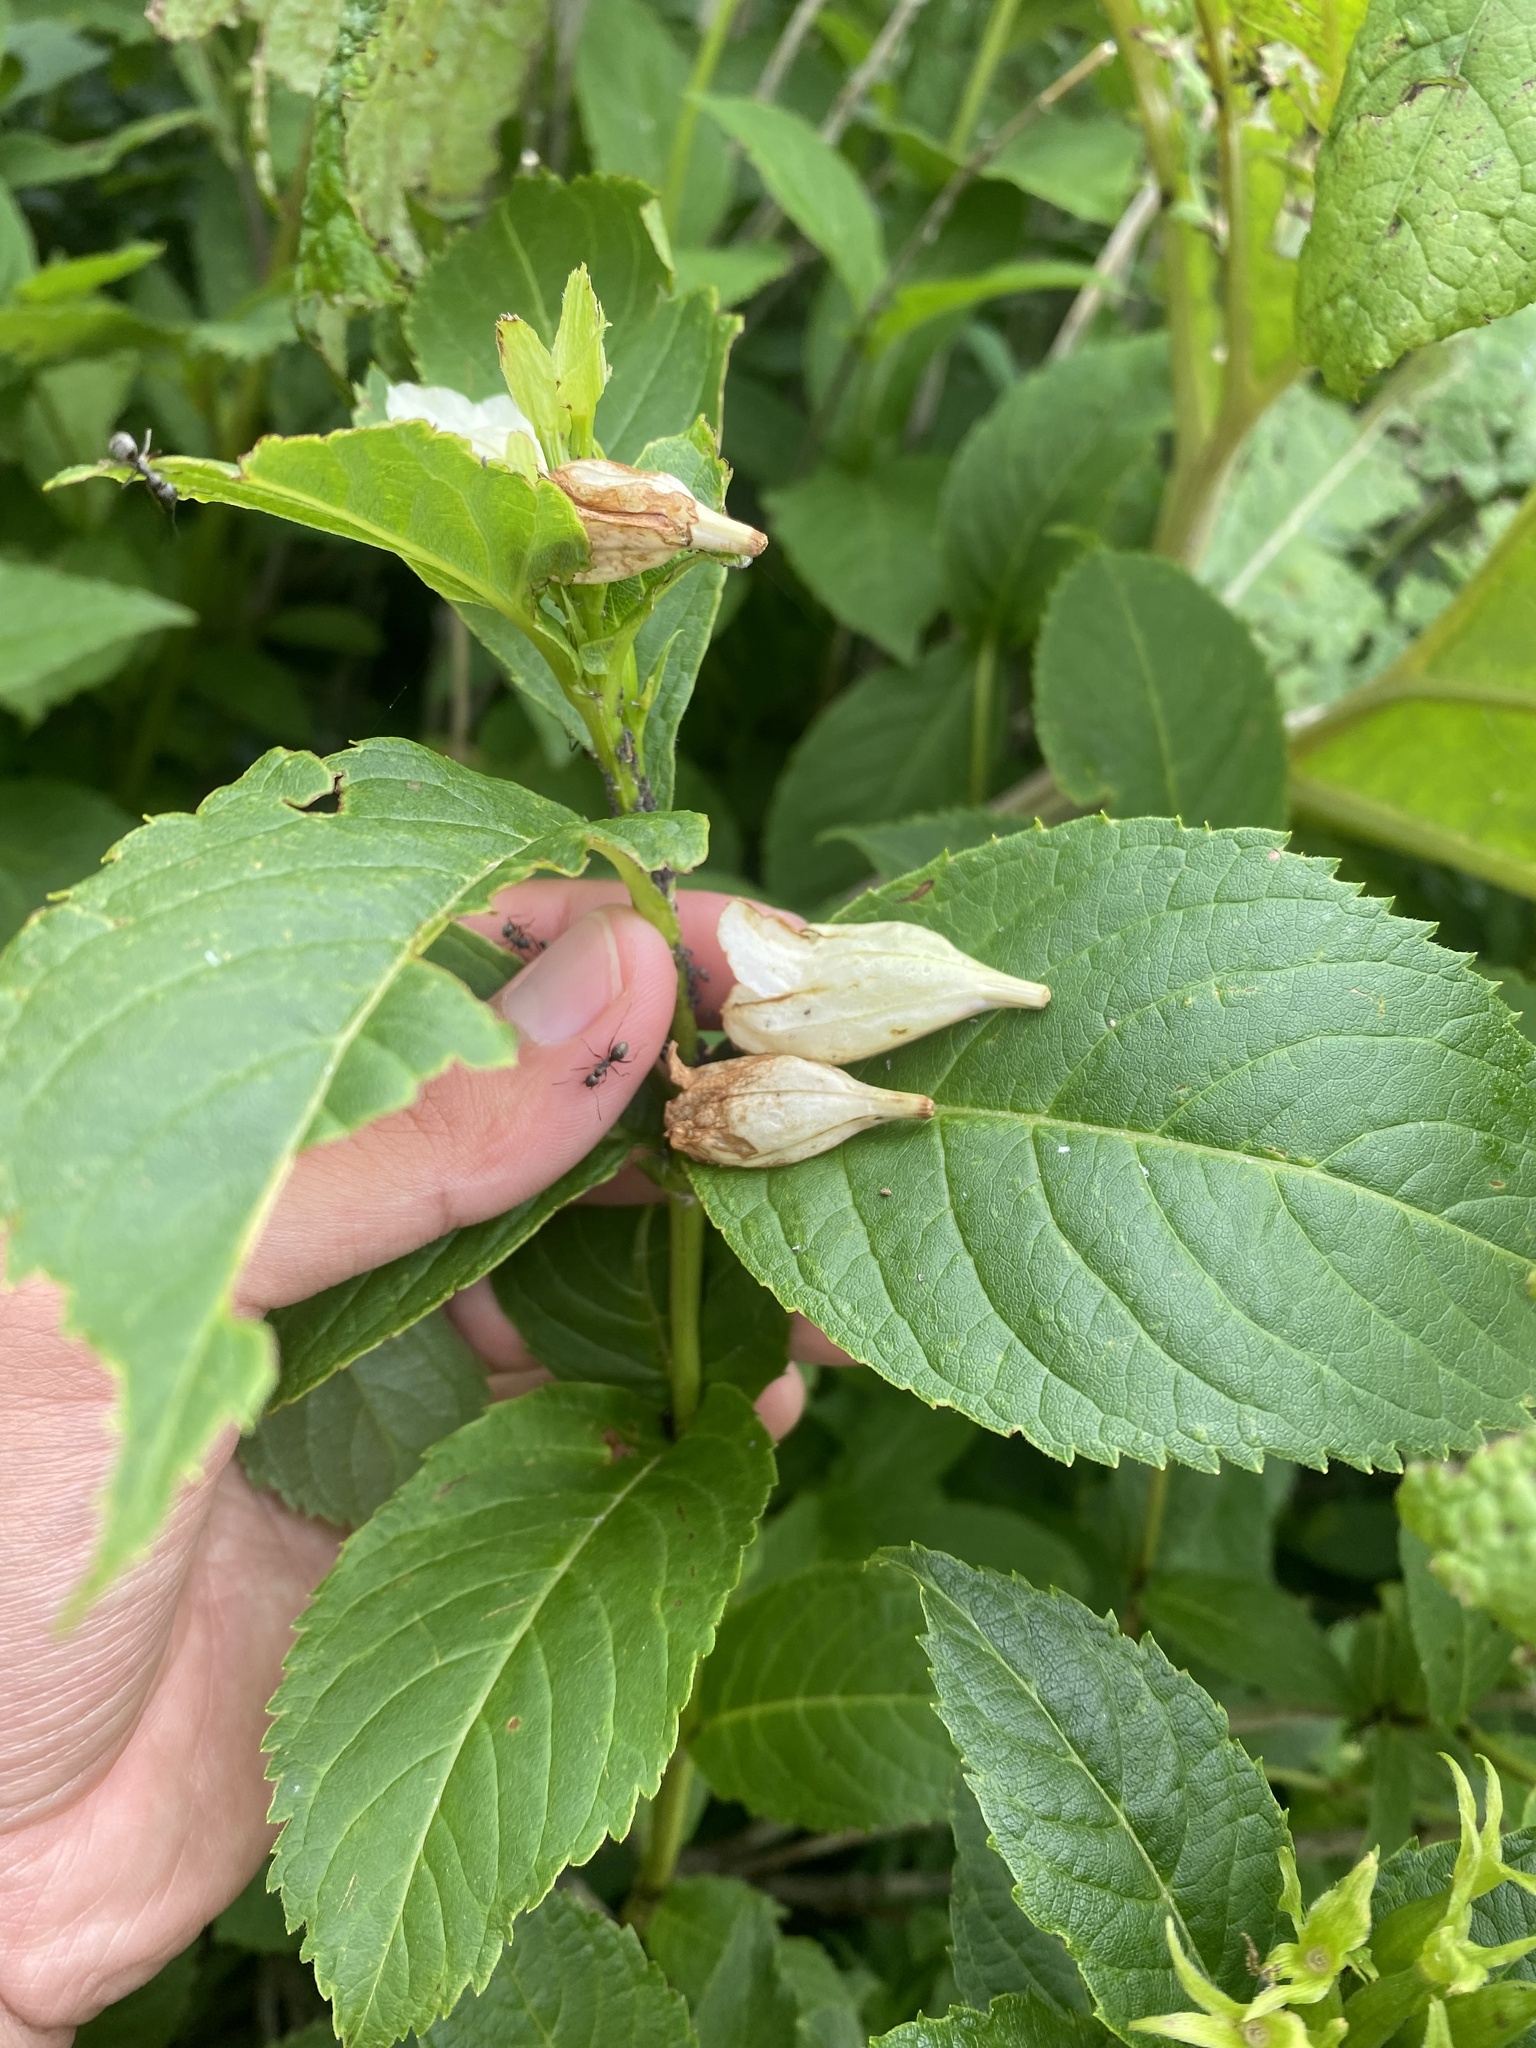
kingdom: Plantae
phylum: Tracheophyta
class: Magnoliopsida
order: Dipsacales
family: Caprifoliaceae
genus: Weigela
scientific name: Weigela middendorffiana
